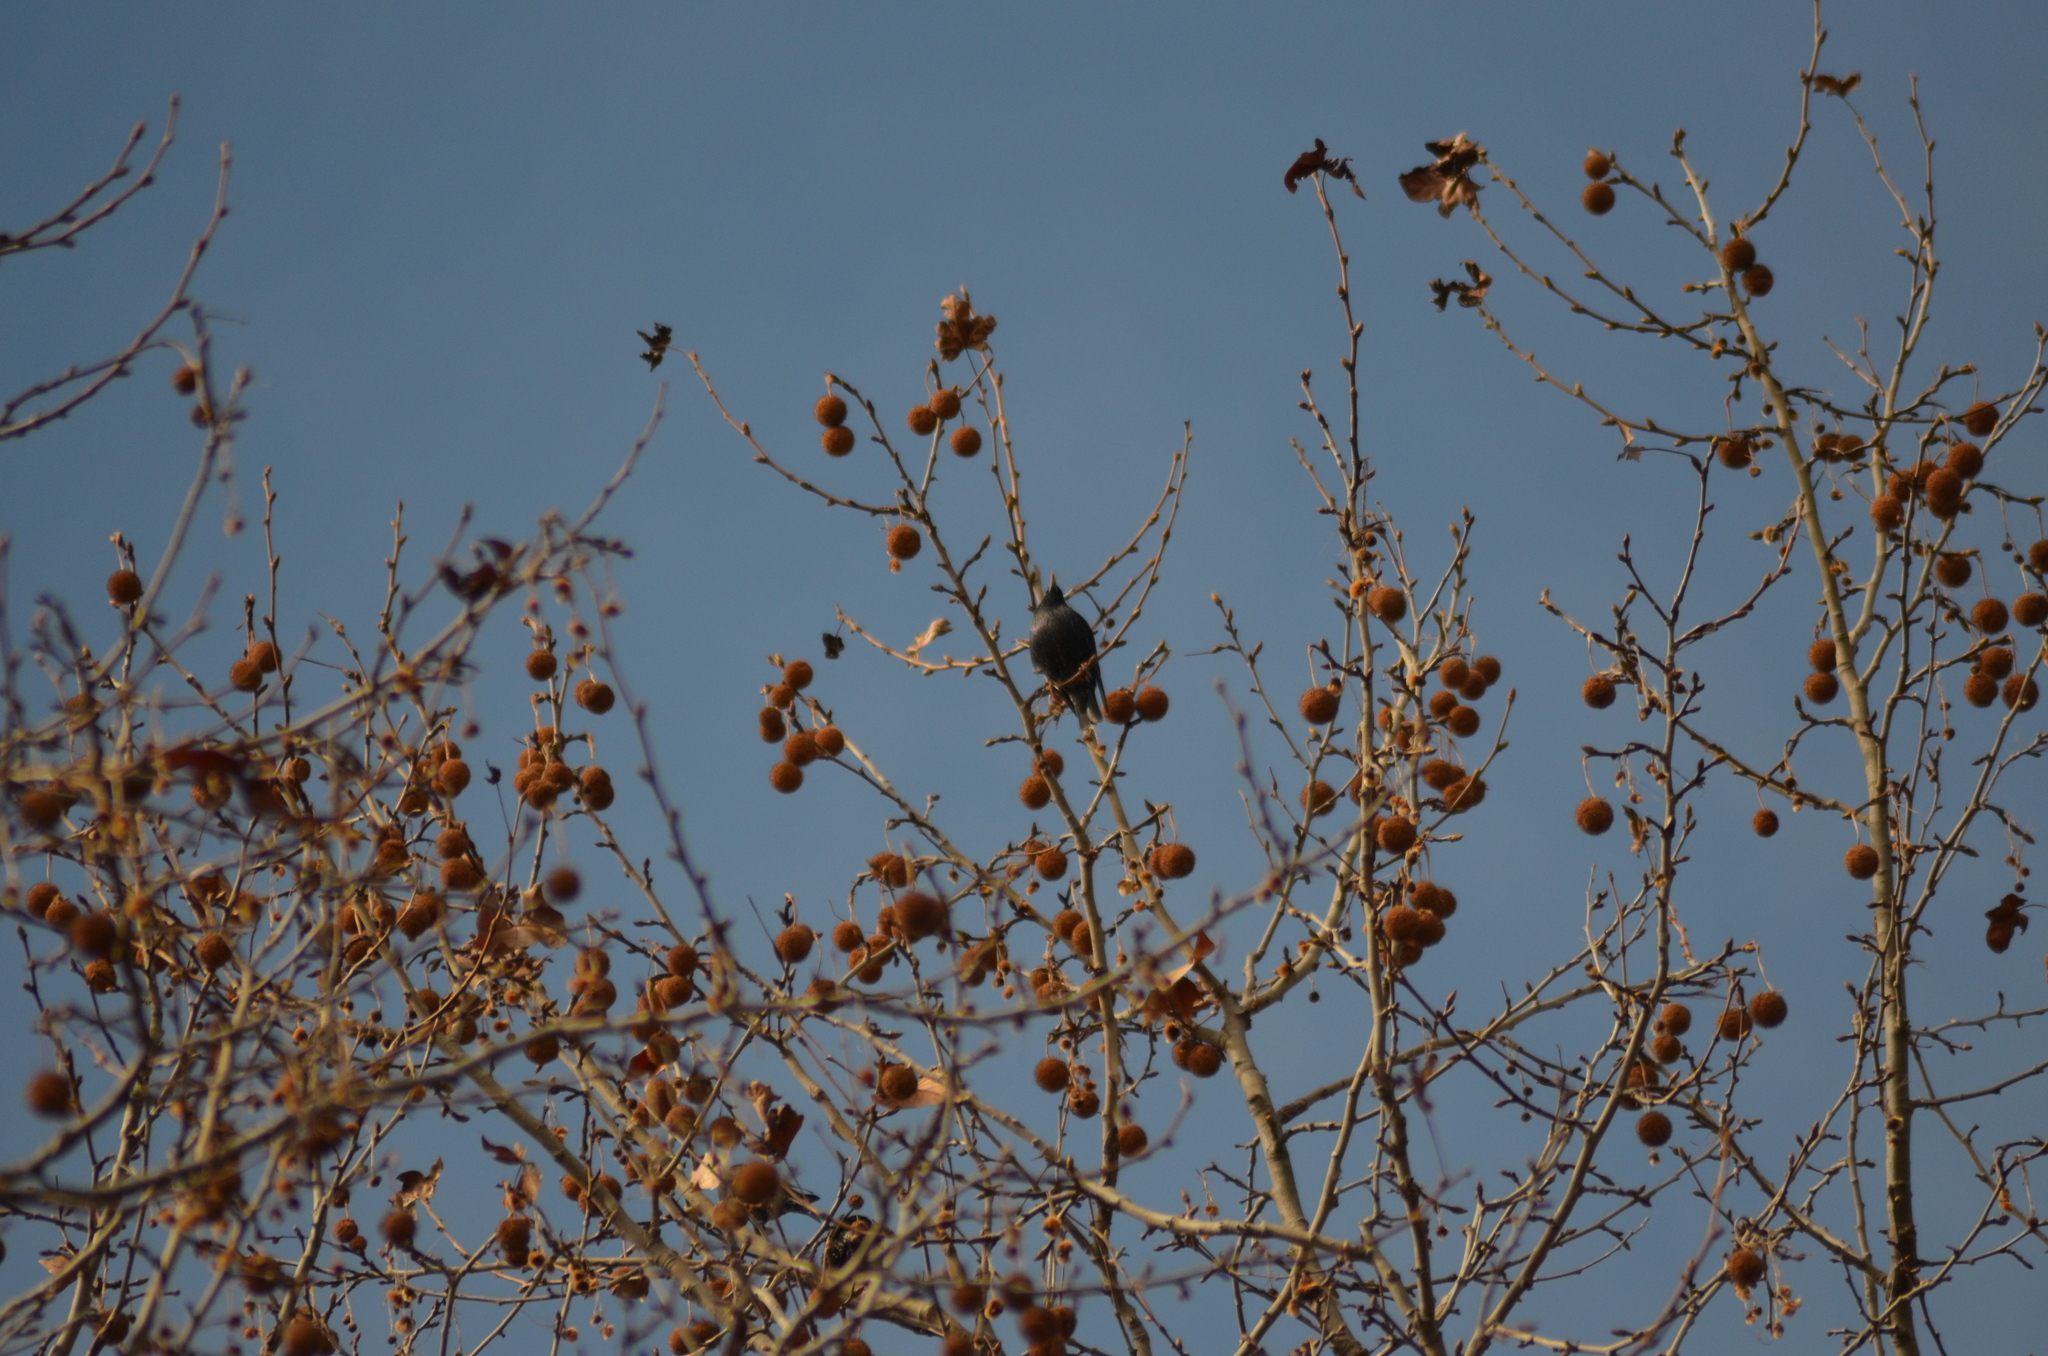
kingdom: Animalia
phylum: Chordata
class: Aves
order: Passeriformes
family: Sturnidae
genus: Sturnus
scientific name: Sturnus unicolor
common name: Spotless starling
